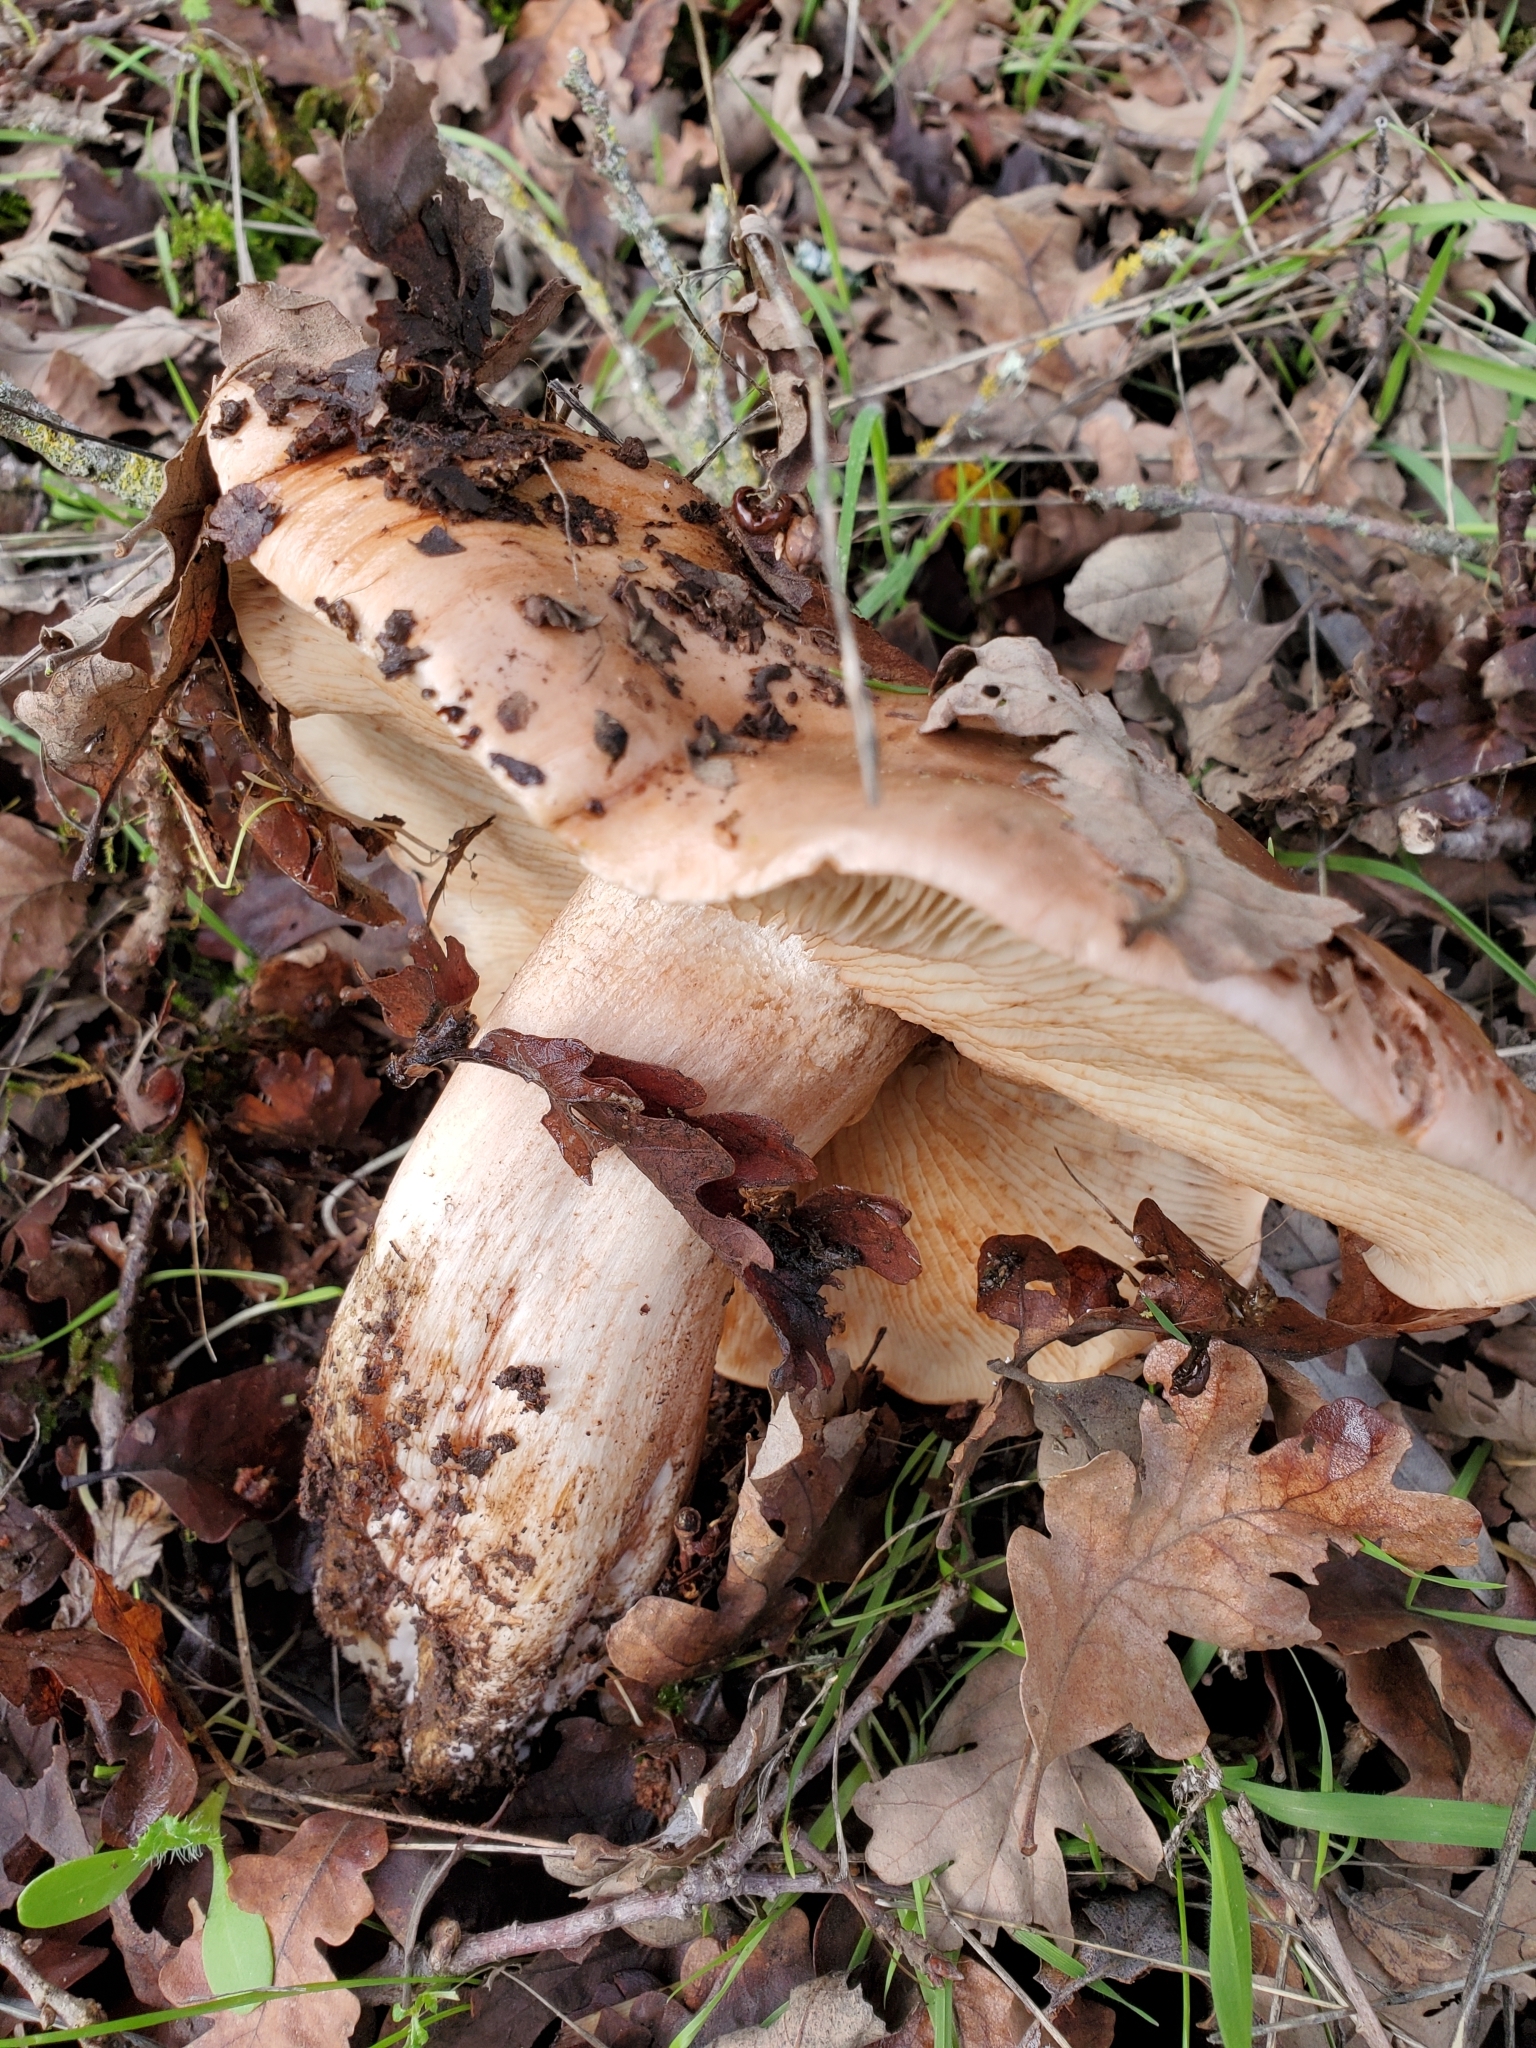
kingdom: Fungi
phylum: Basidiomycota
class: Agaricomycetes
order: Agaricales
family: Tricholomataceae
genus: Melanoleuca
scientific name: Melanoleuca dryophila
